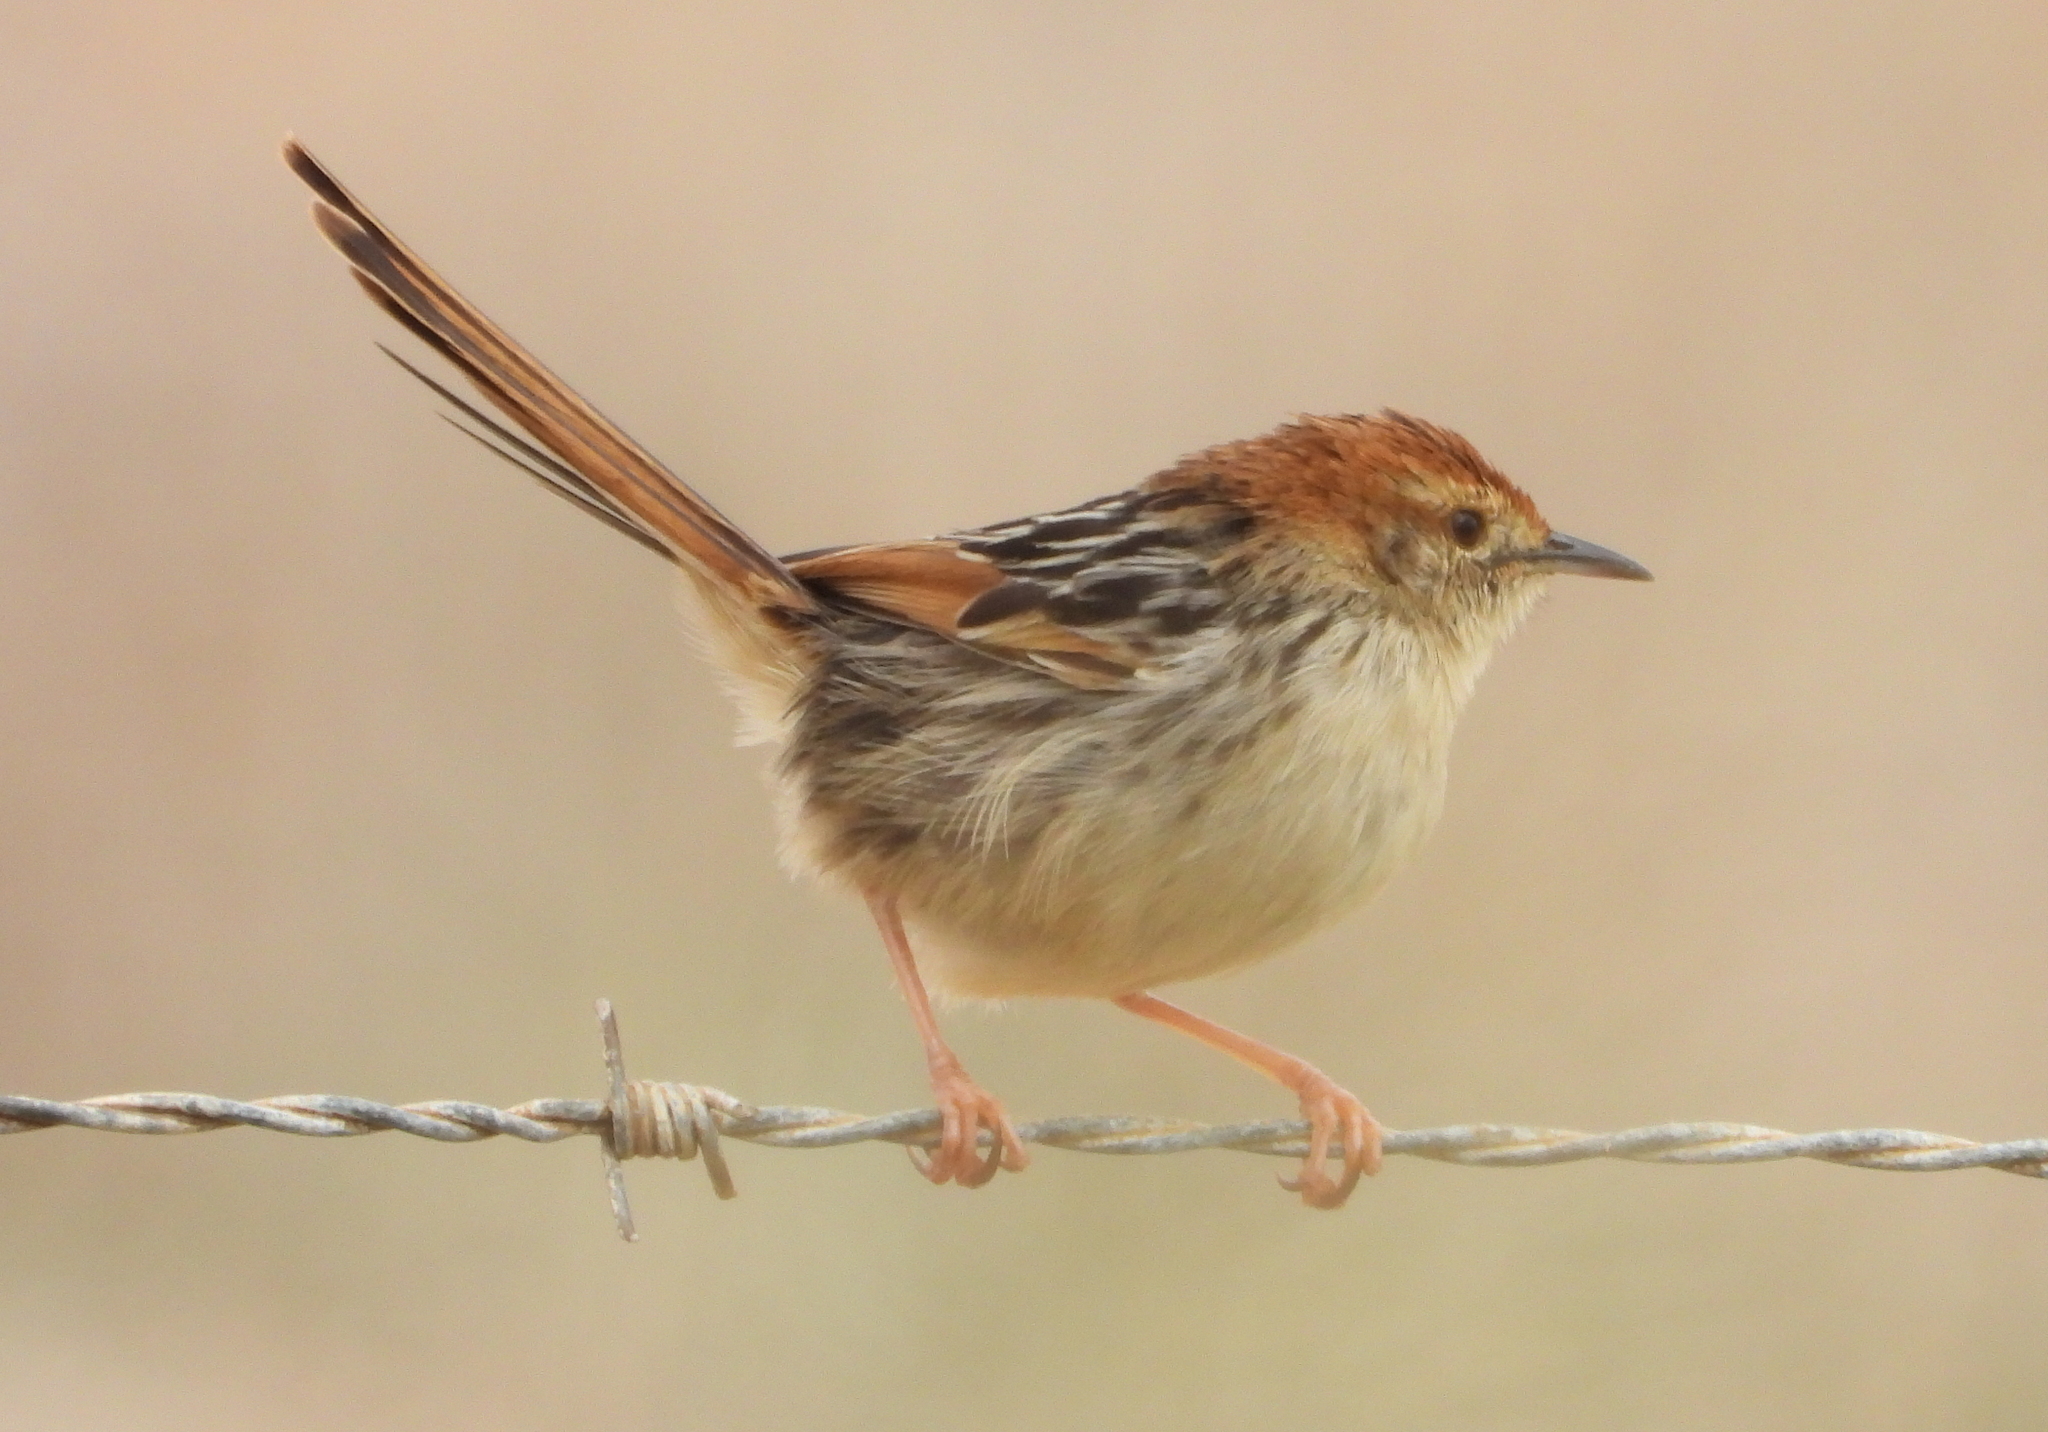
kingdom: Animalia
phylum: Chordata
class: Aves
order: Passeriformes
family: Cisticolidae
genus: Cisticola
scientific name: Cisticola tinniens
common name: Levaillant's cisticola
